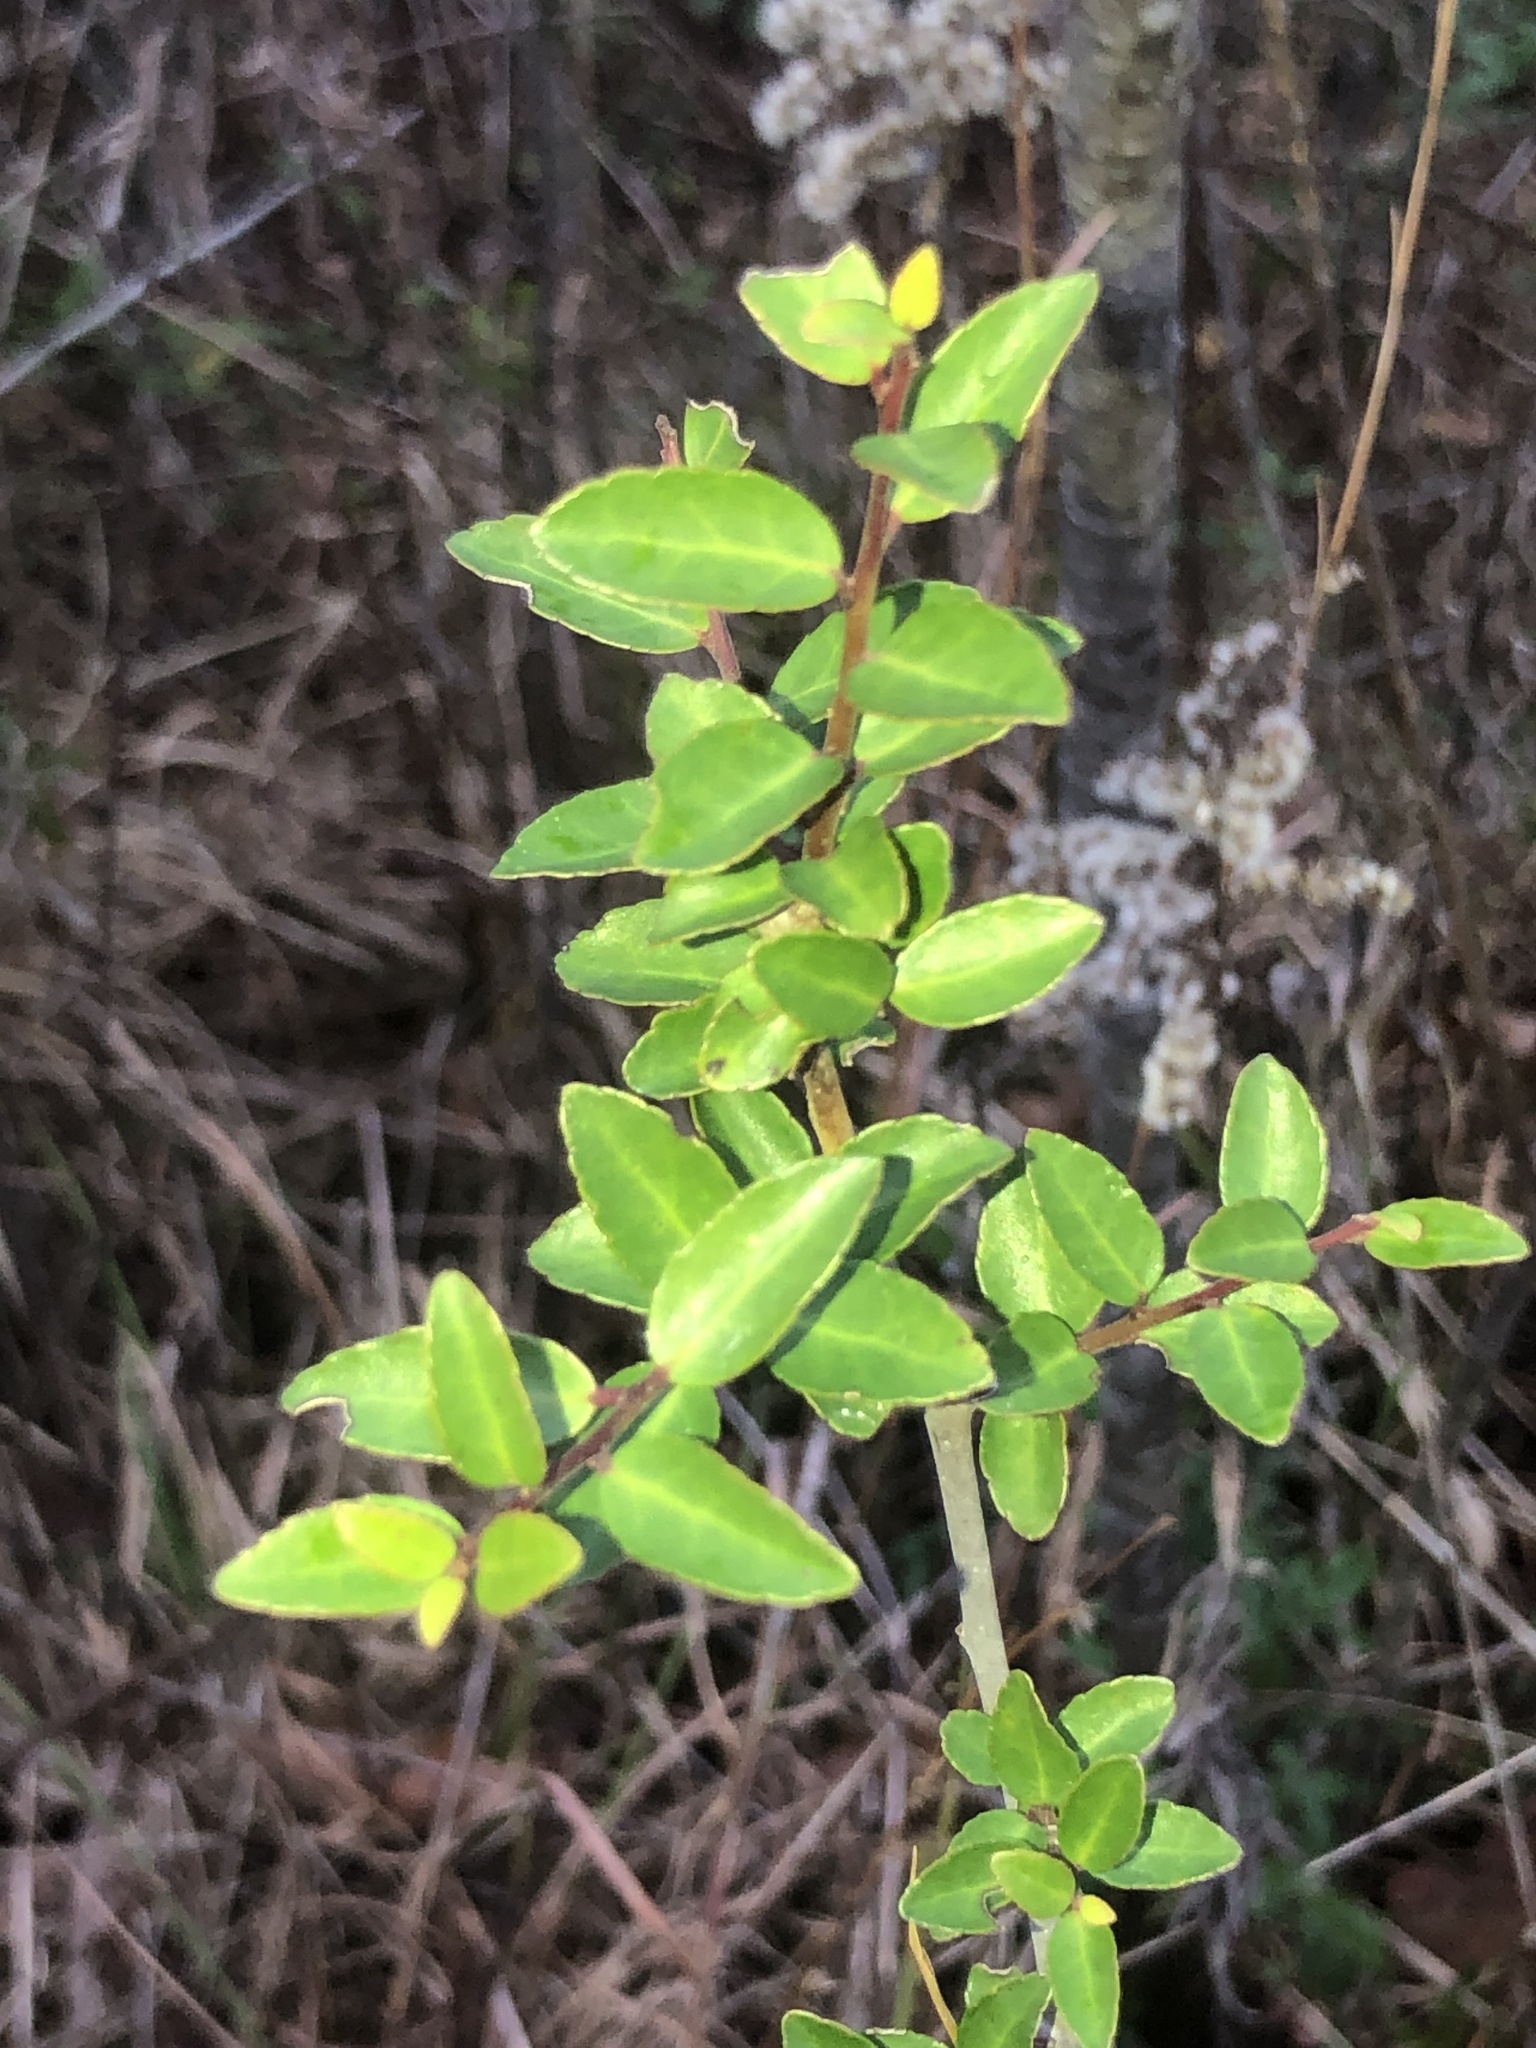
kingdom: Plantae
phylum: Tracheophyta
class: Magnoliopsida
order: Aquifoliales
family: Aquifoliaceae
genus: Ilex
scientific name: Ilex vomitoria
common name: Yaupon holly
